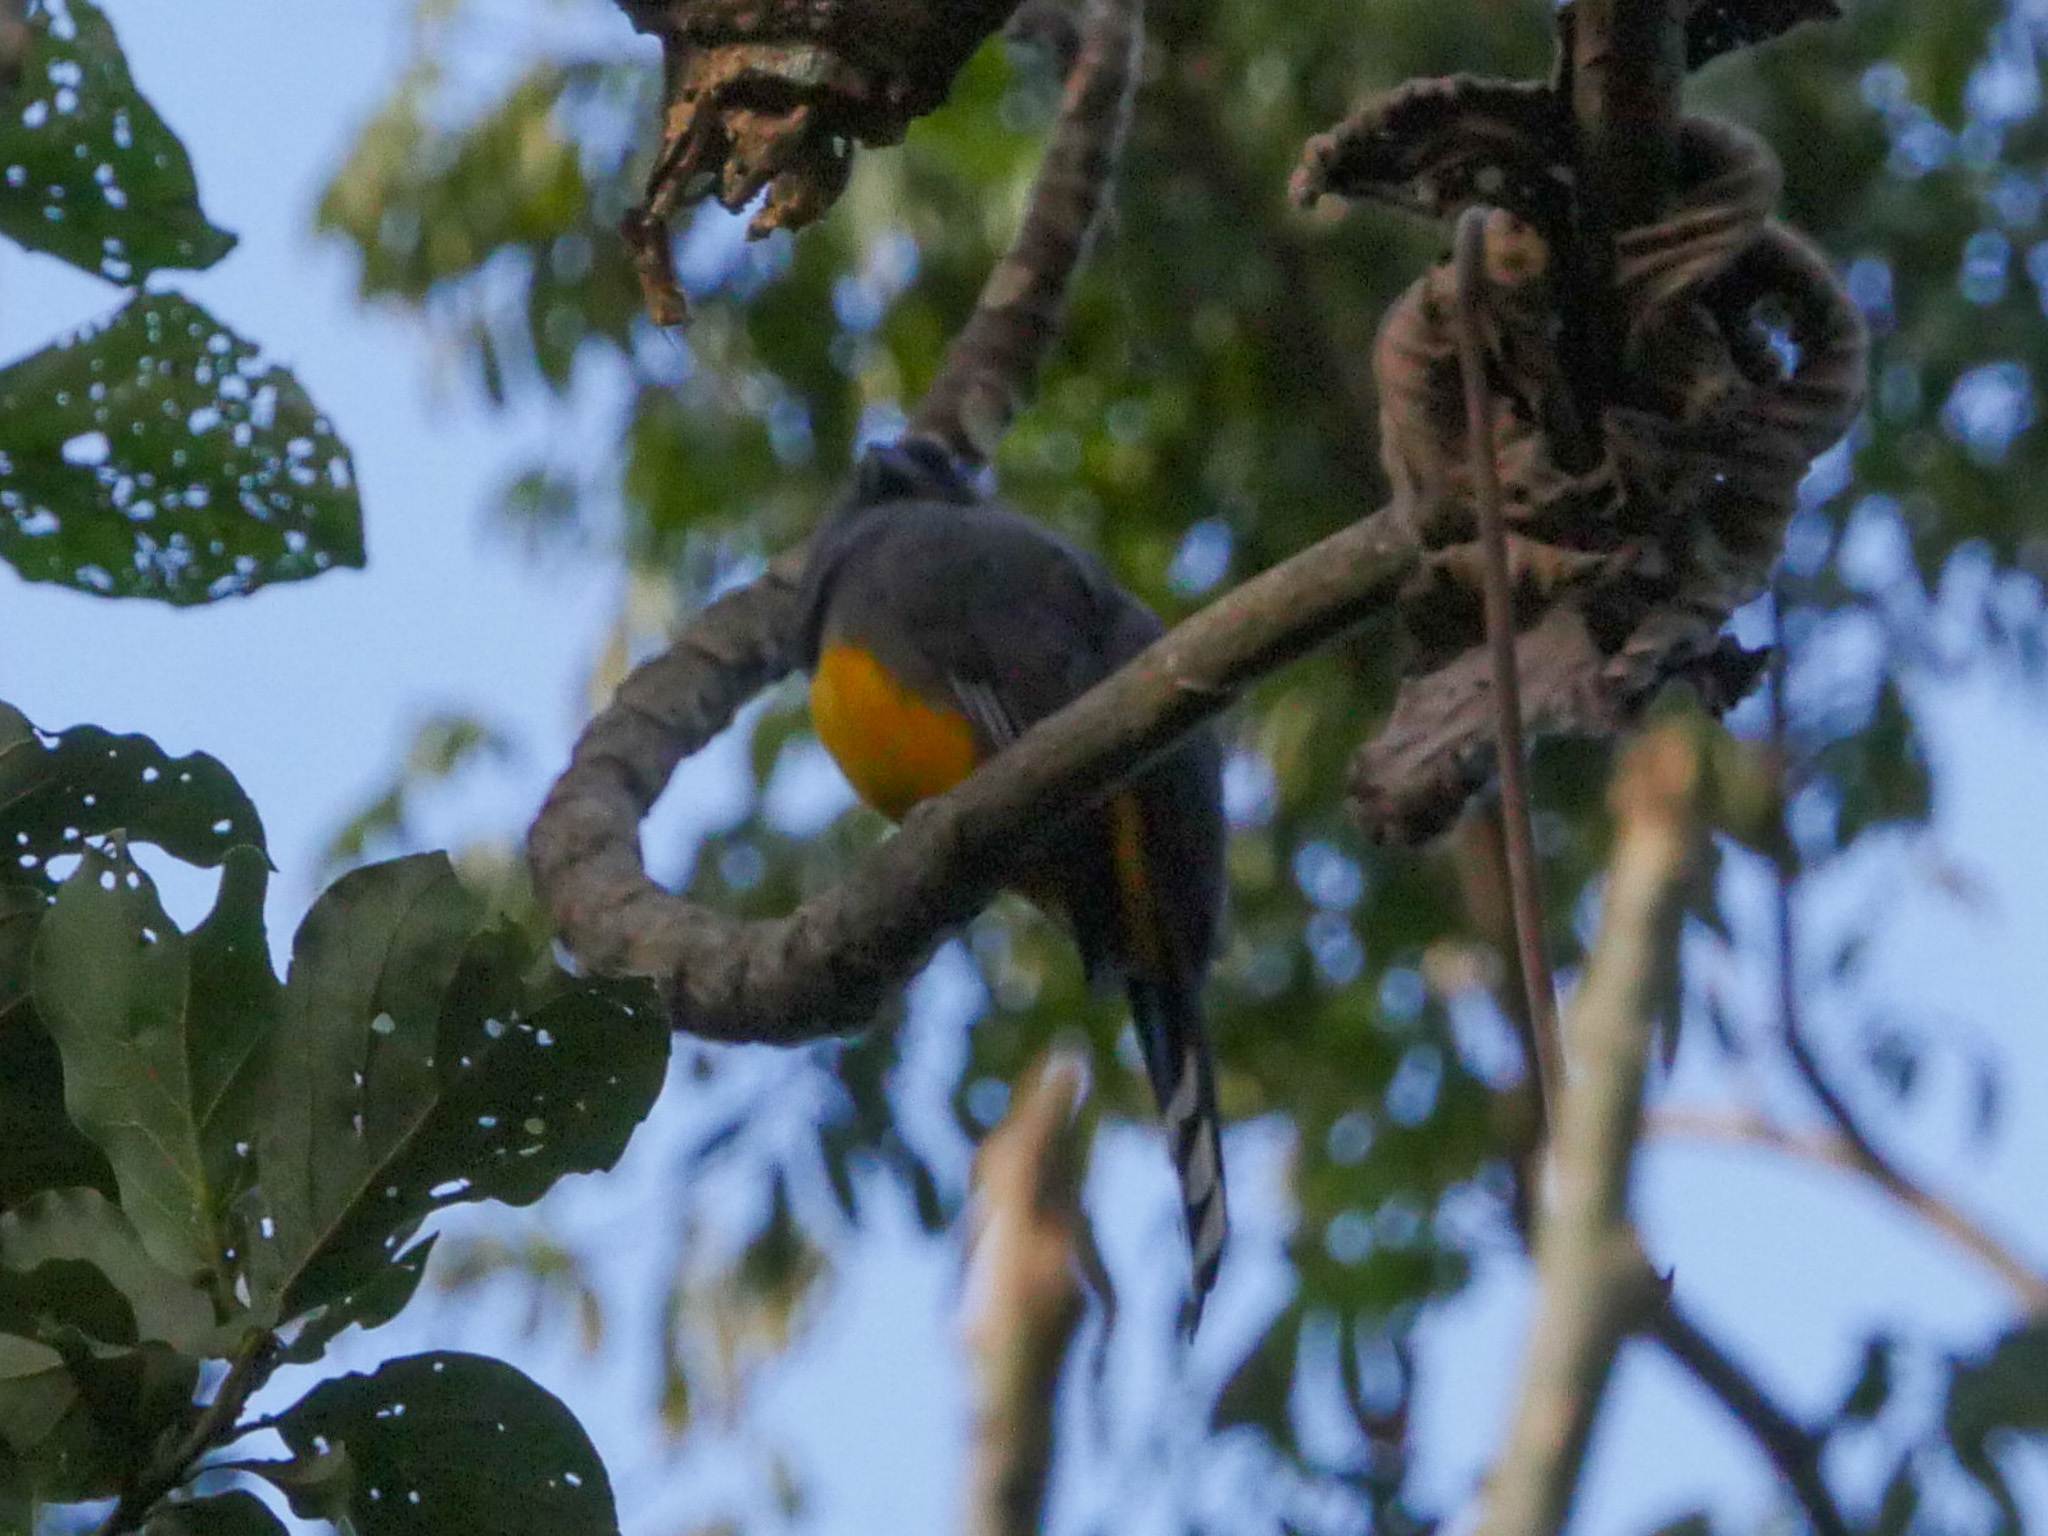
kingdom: Animalia
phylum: Chordata
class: Aves
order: Trogoniformes
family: Trogonidae
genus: Trogon
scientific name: Trogon melanocephalus
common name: Black-headed trogon
